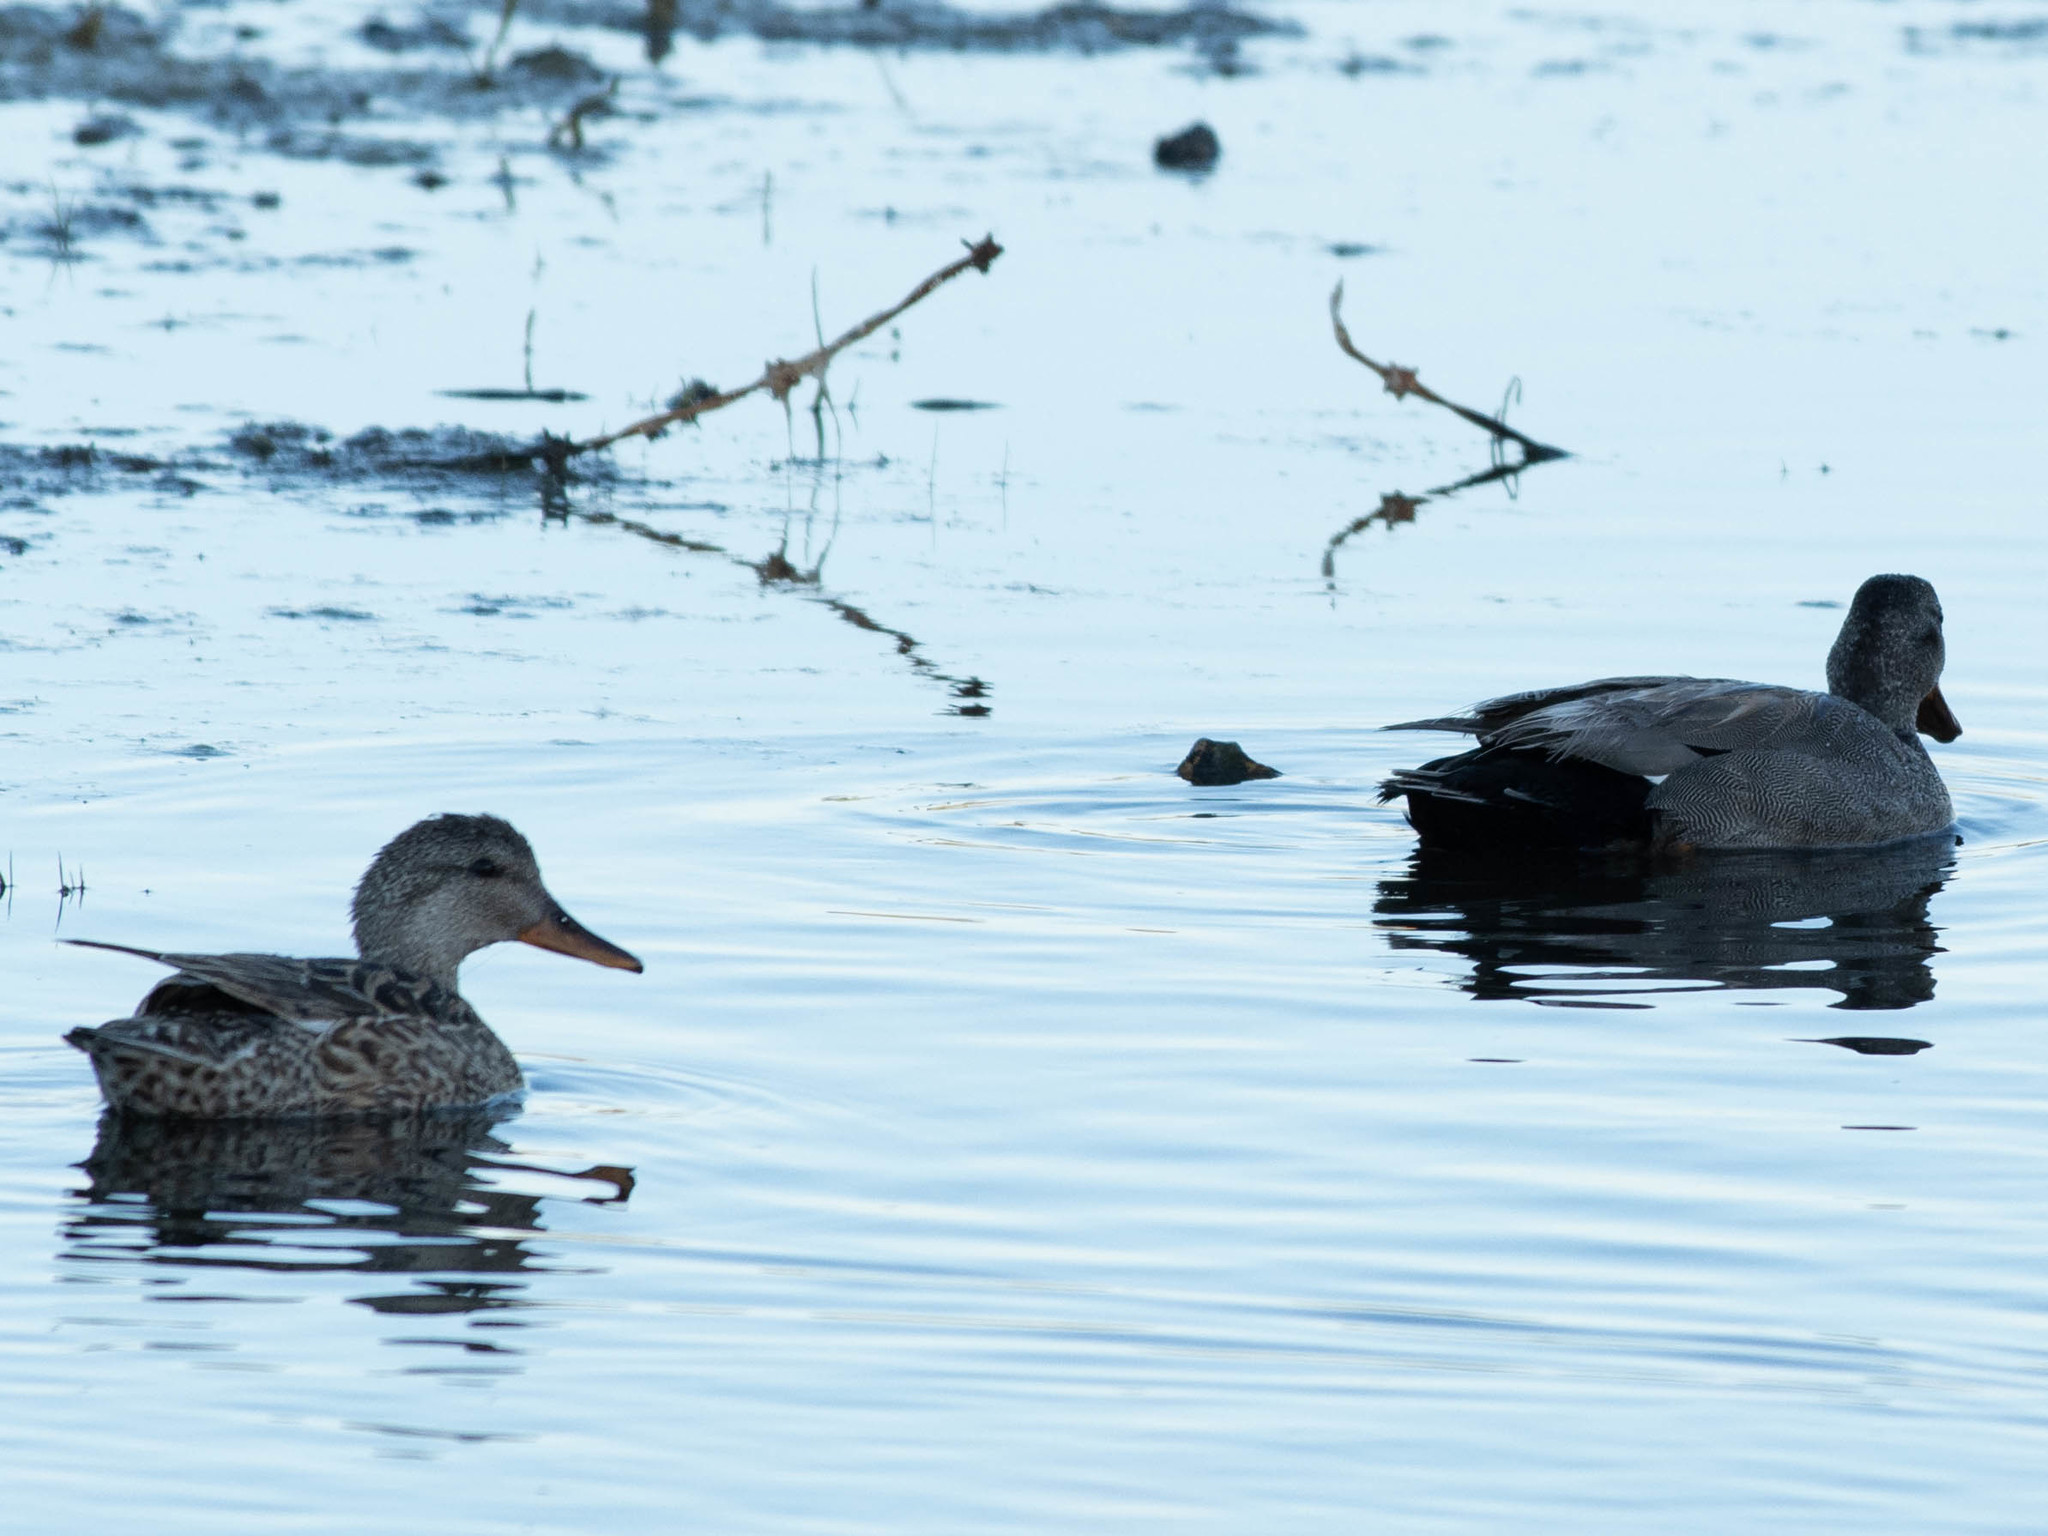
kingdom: Animalia
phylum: Chordata
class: Aves
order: Anseriformes
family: Anatidae
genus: Mareca
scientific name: Mareca strepera
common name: Gadwall
